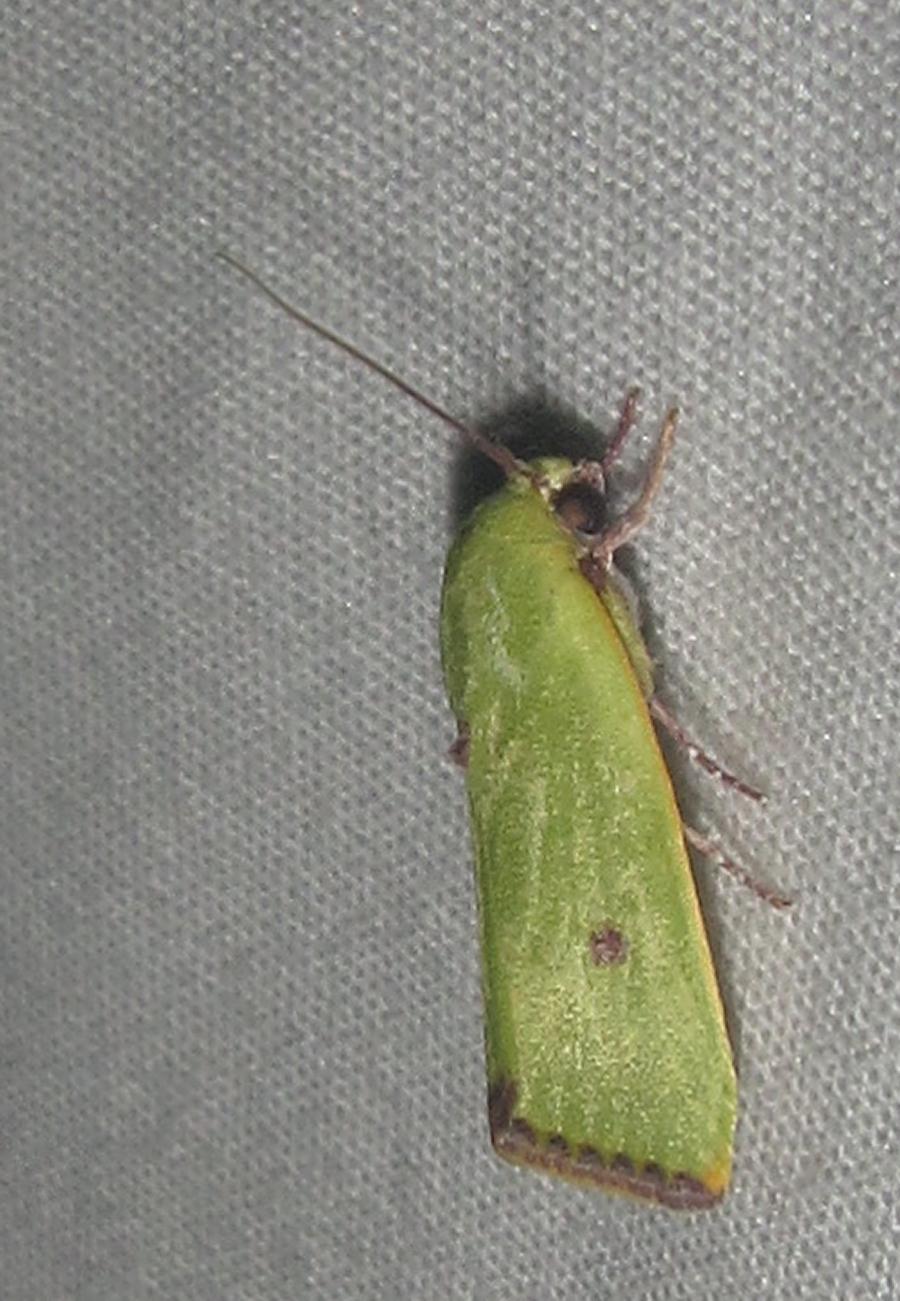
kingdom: Animalia
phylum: Arthropoda
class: Insecta
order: Lepidoptera
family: Nolidae
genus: Earias
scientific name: Earias biplaga
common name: Spiny bollworm
